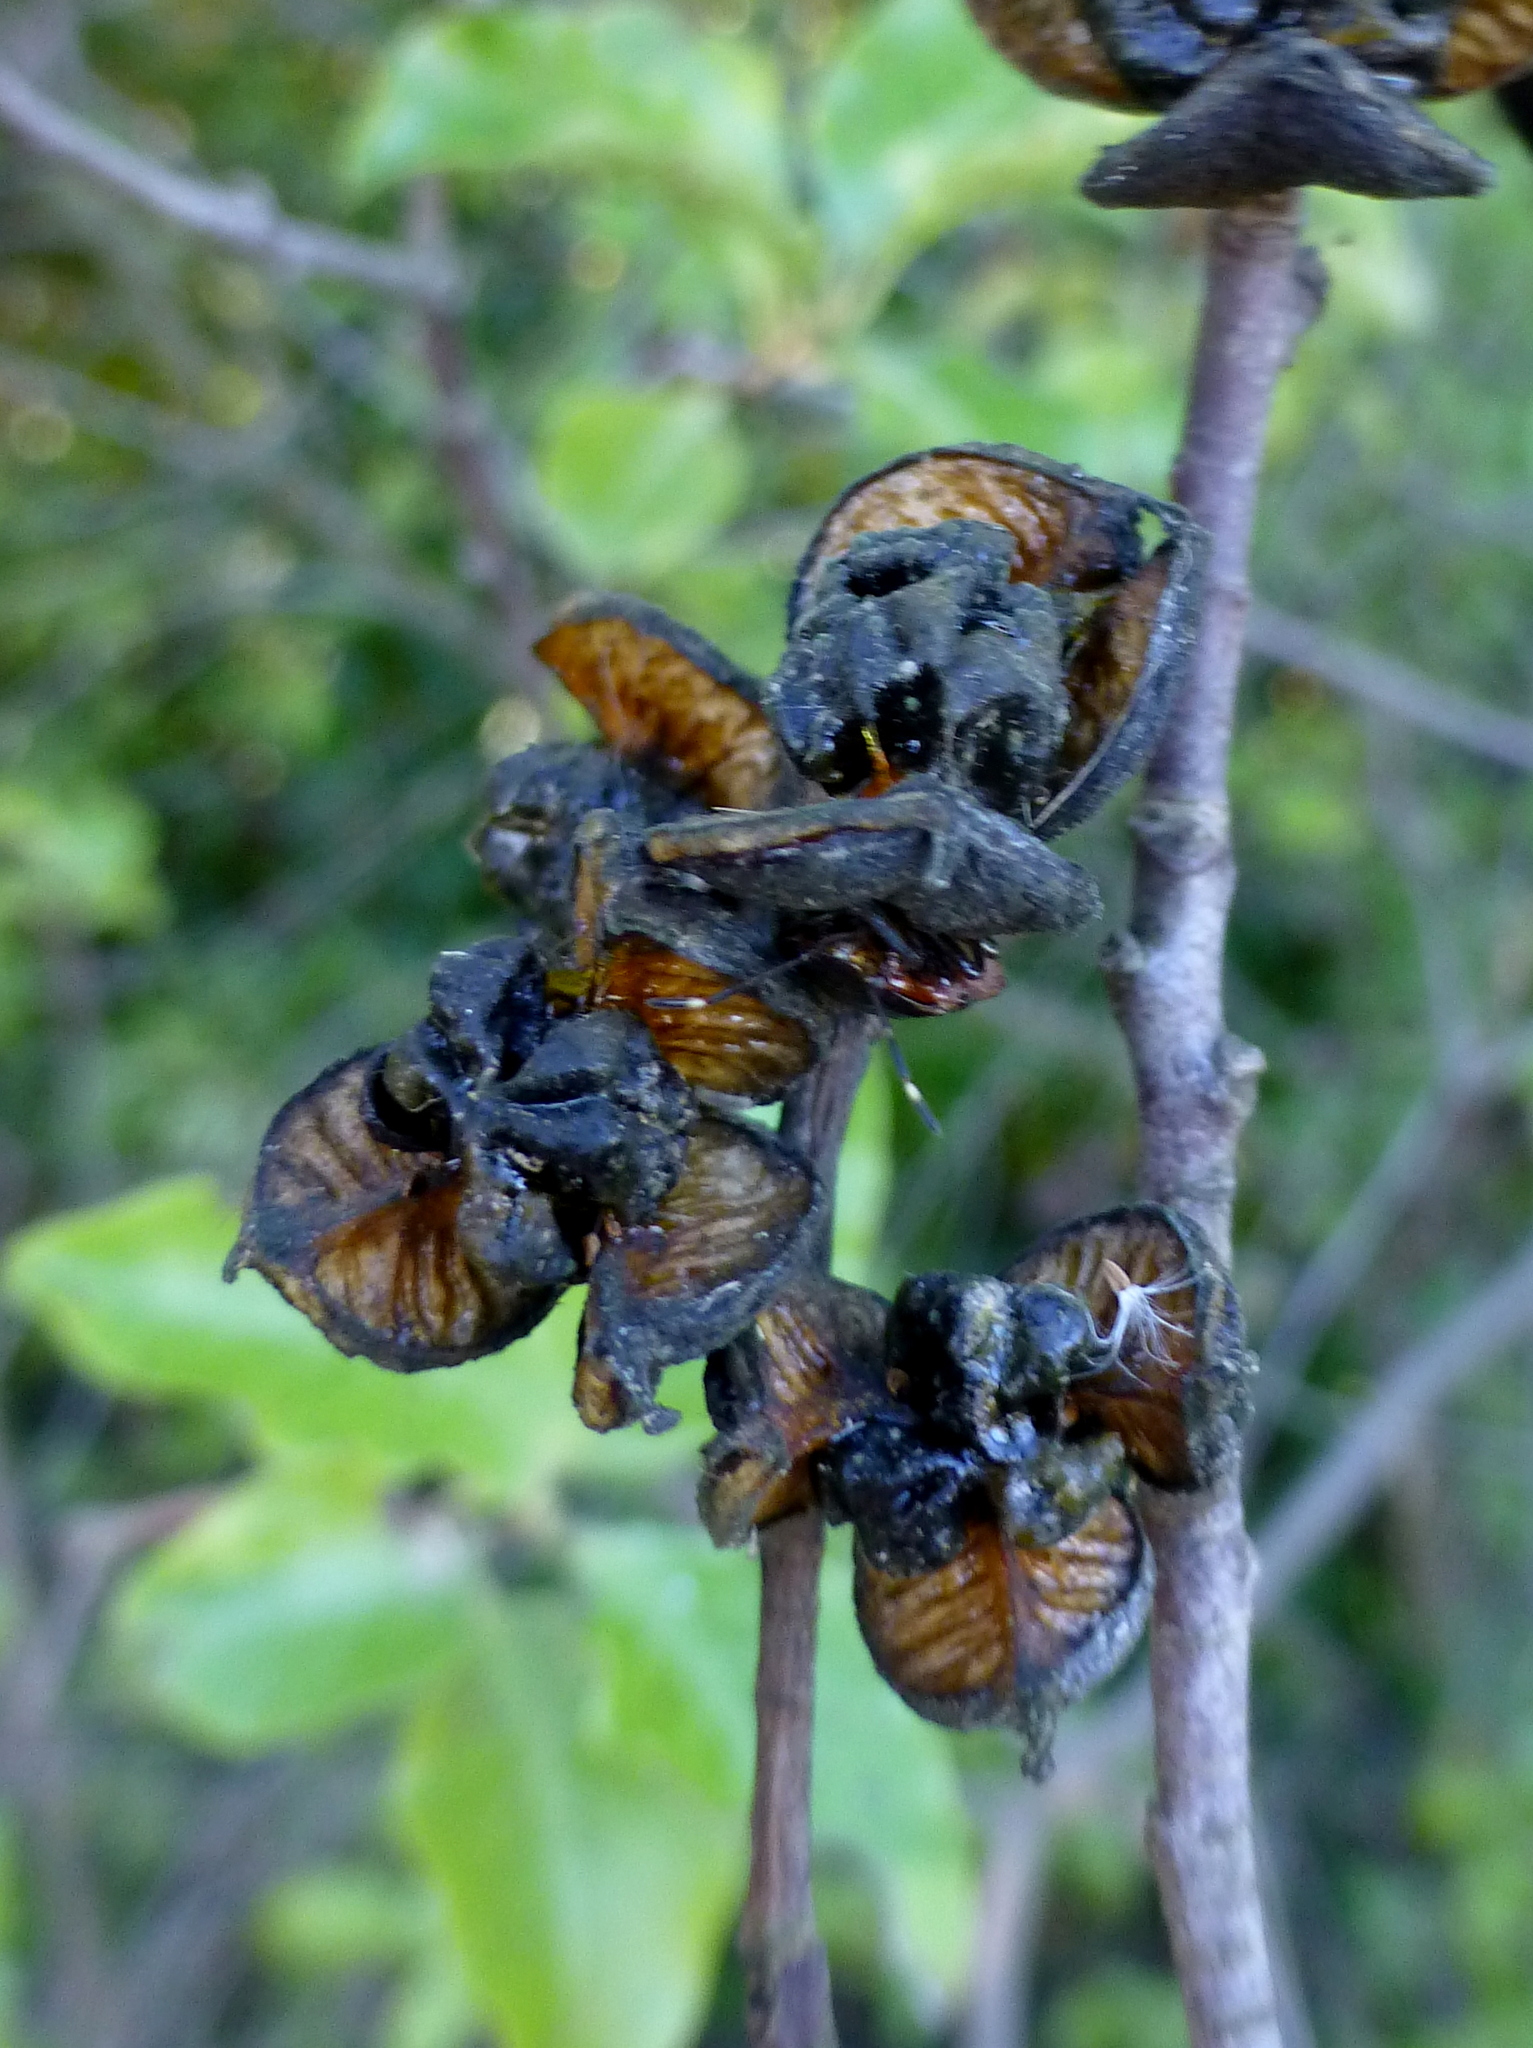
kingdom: Plantae
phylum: Tracheophyta
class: Magnoliopsida
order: Apiales
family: Pittosporaceae
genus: Pittosporum
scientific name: Pittosporum tenuifolium
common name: Kohuhu
